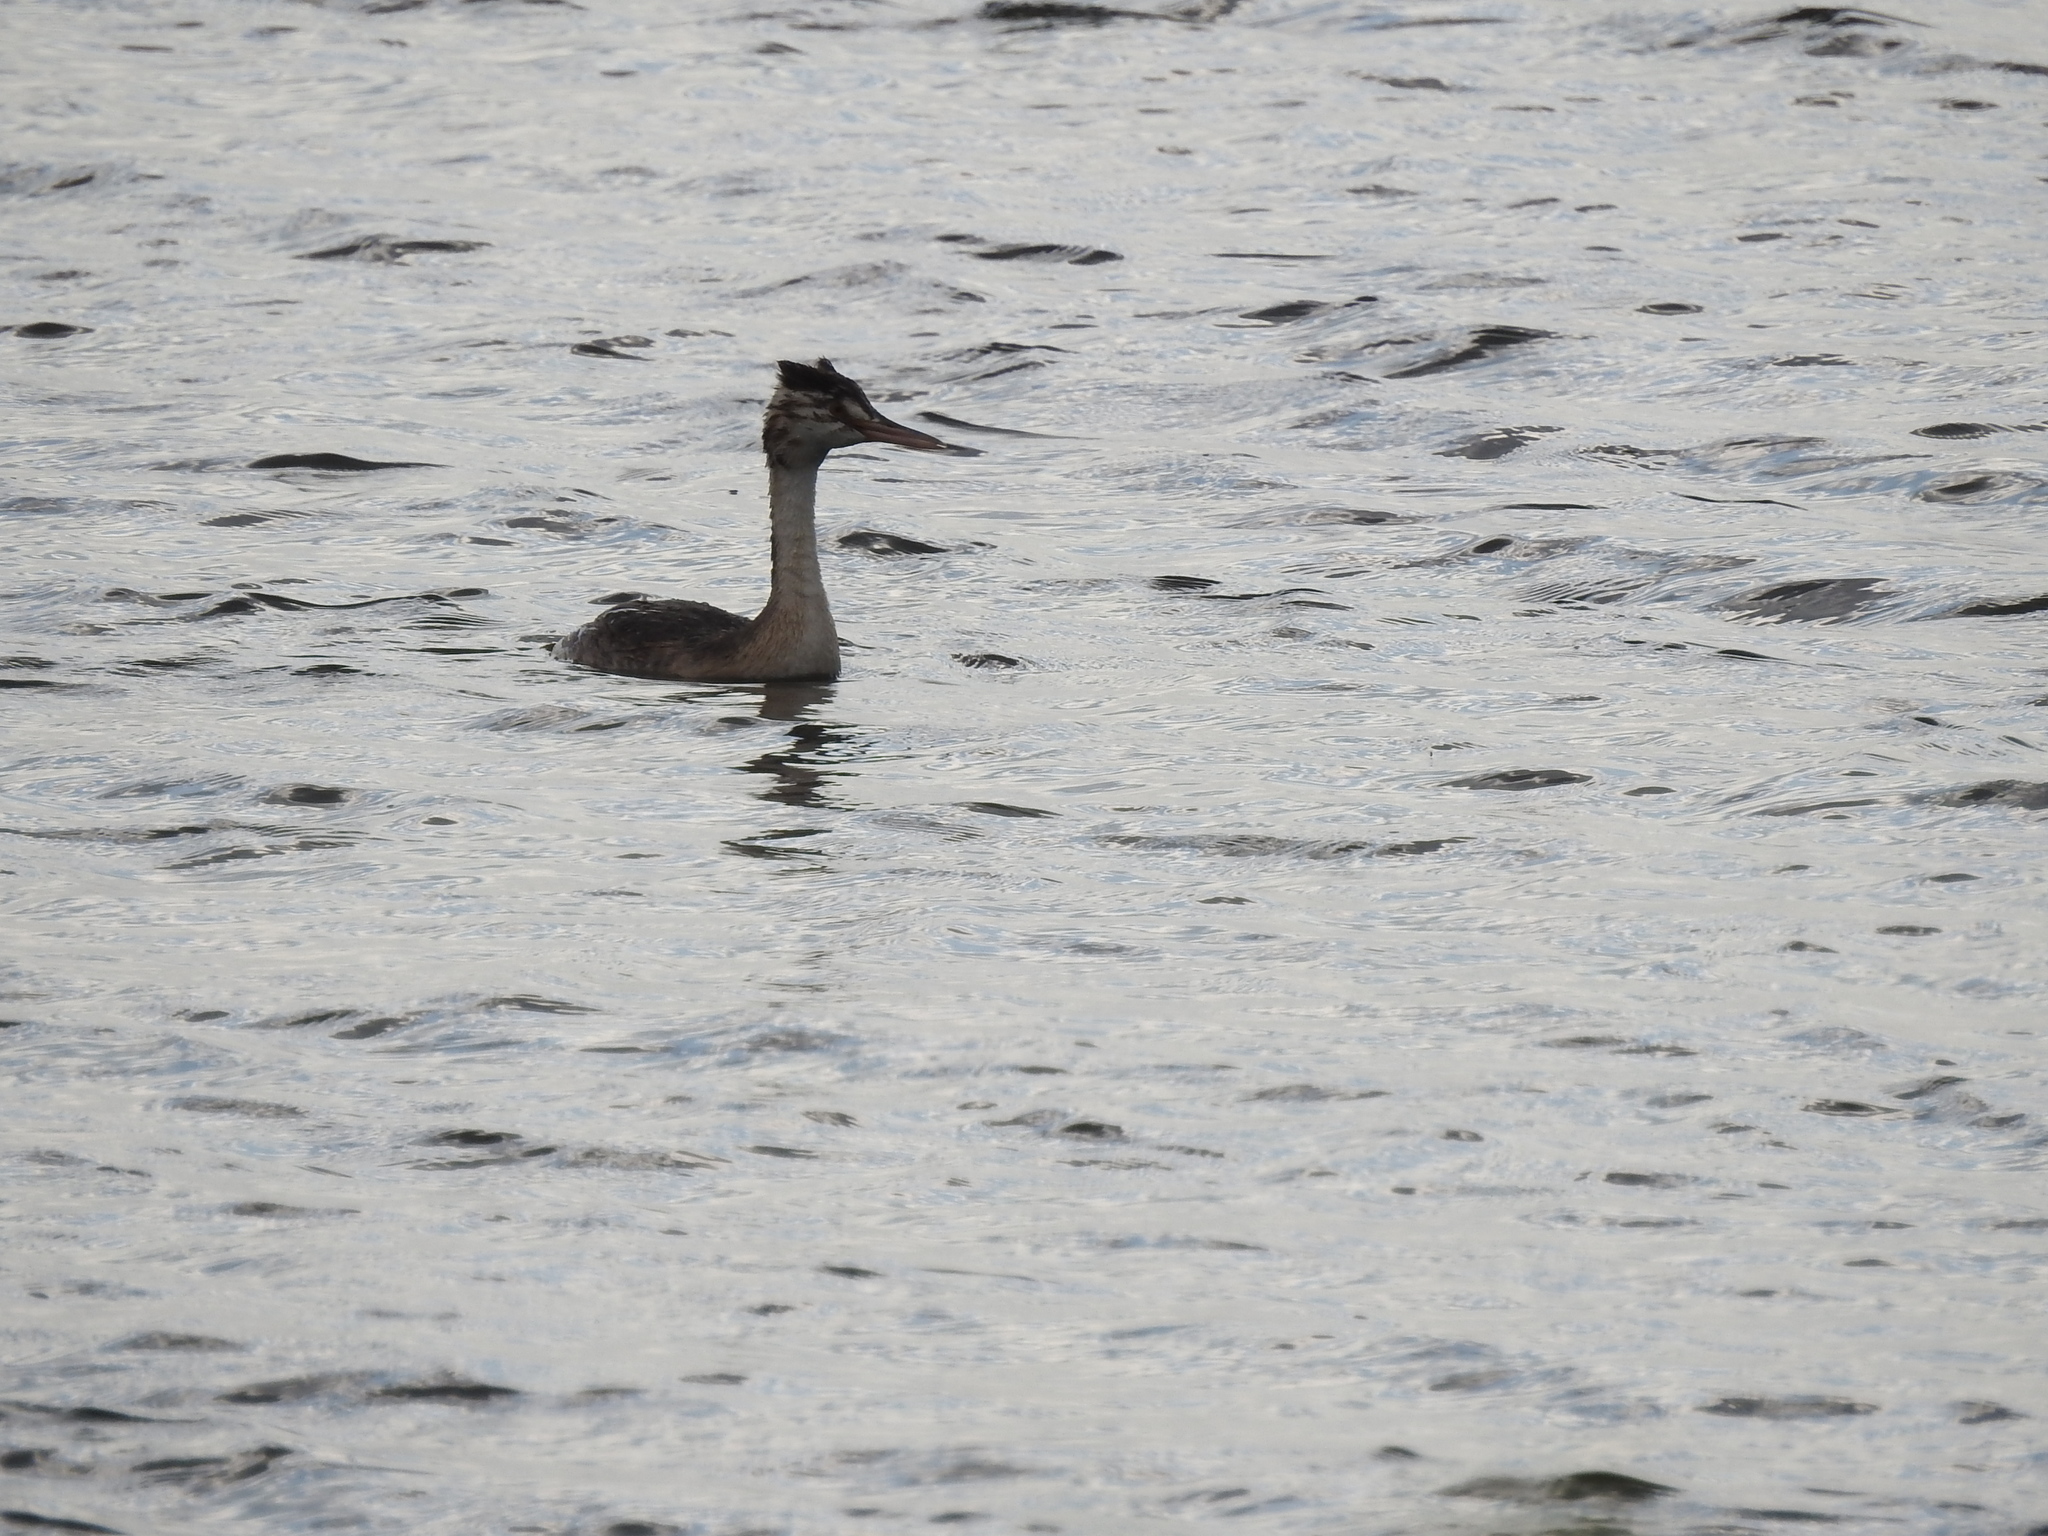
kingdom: Animalia
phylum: Chordata
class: Aves
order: Podicipediformes
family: Podicipedidae
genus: Podiceps
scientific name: Podiceps cristatus
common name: Great crested grebe
